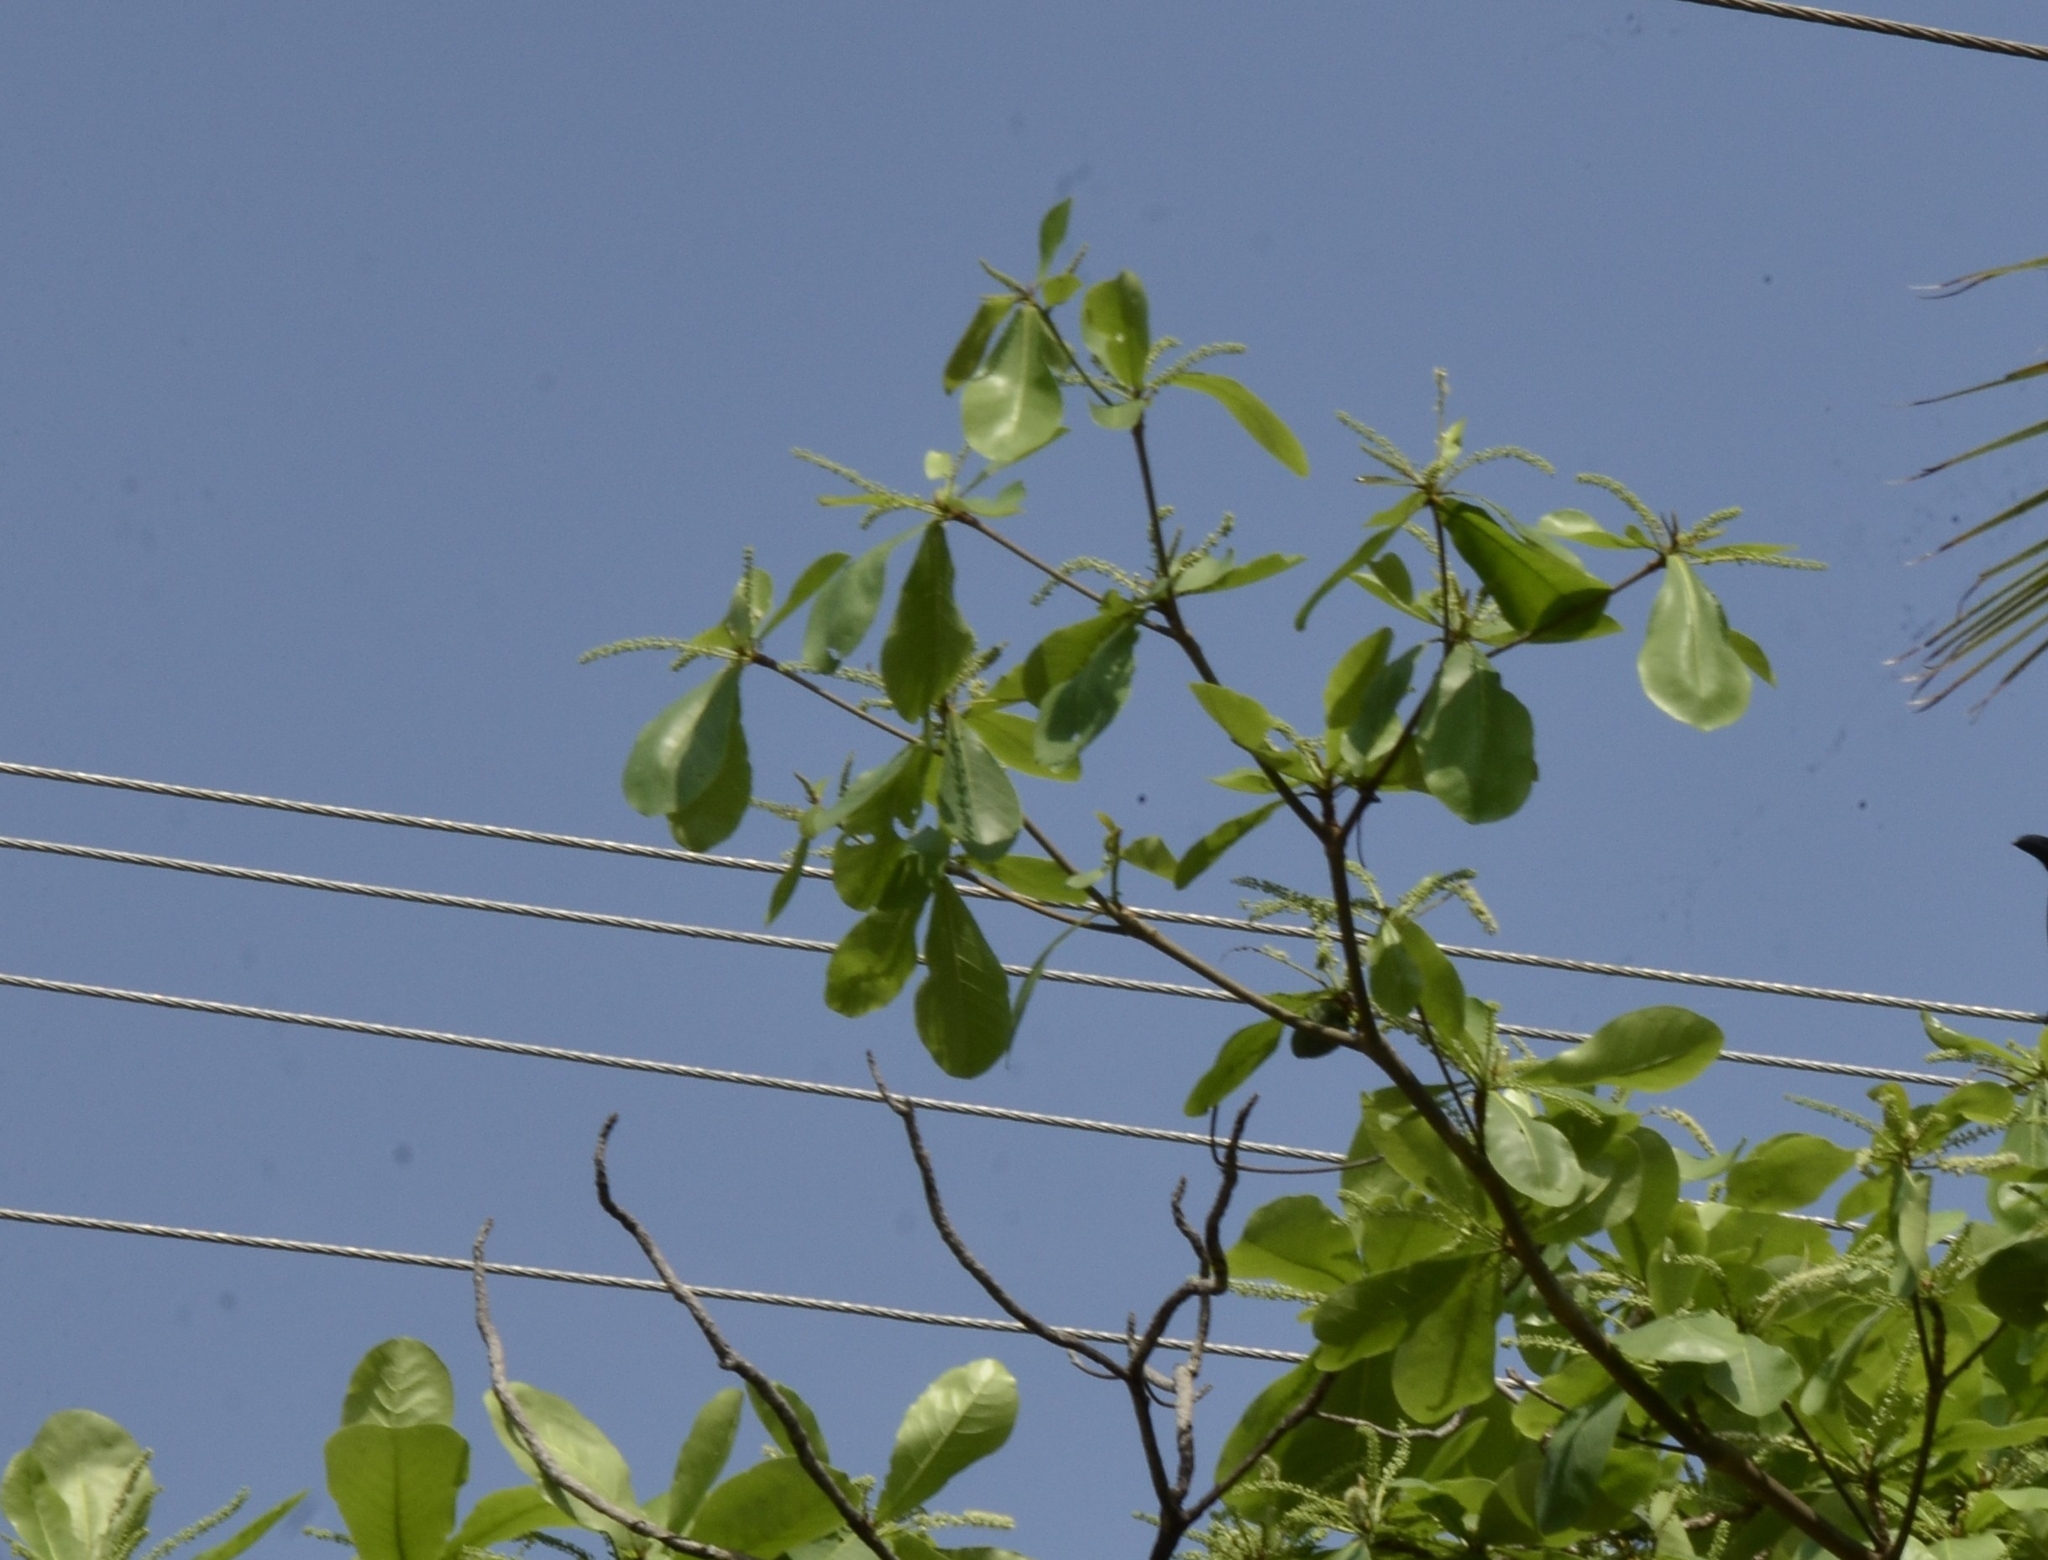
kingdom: Plantae
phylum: Tracheophyta
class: Magnoliopsida
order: Myrtales
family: Combretaceae
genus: Terminalia
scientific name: Terminalia catappa
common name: Tropical almond
